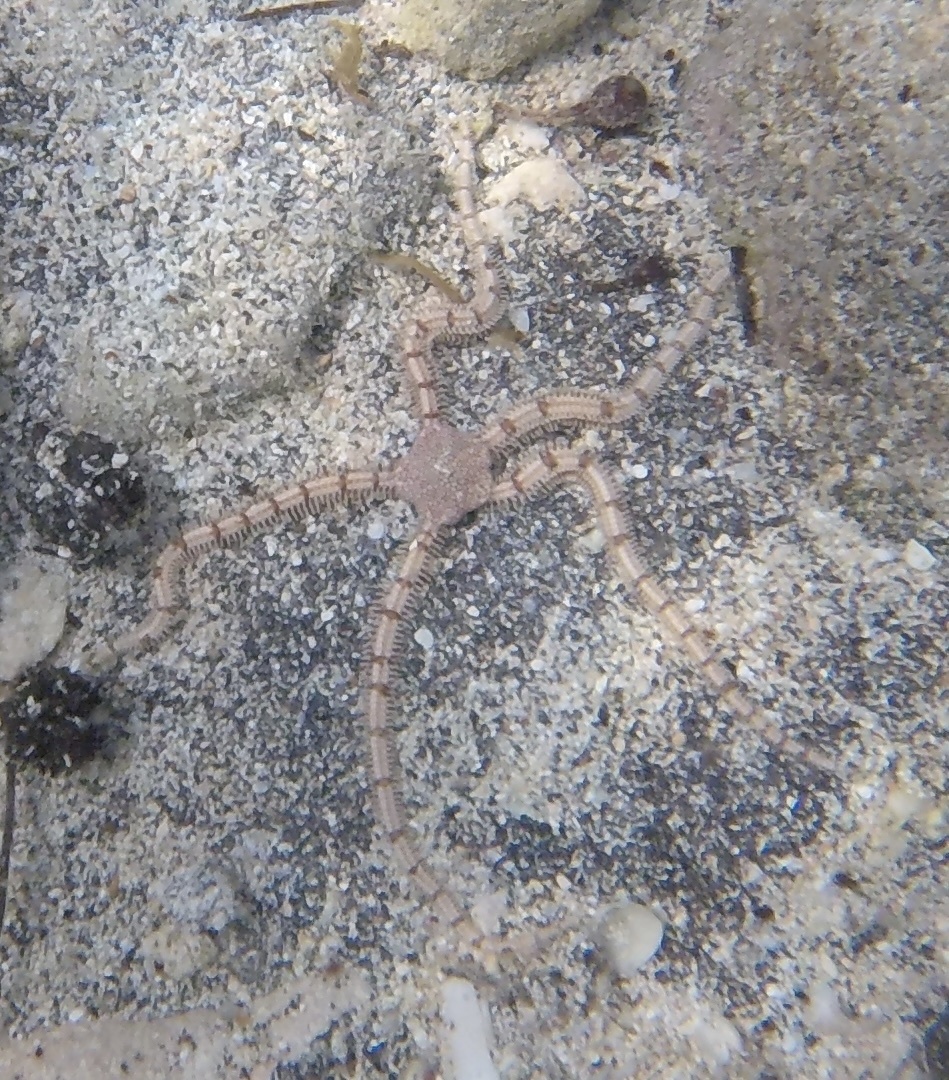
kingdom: Animalia
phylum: Echinodermata
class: Ophiuroidea
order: Amphilepidida
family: Ophionereididae
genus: Ophionereis
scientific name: Ophionereis reticulata
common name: Reticulate brittle star
